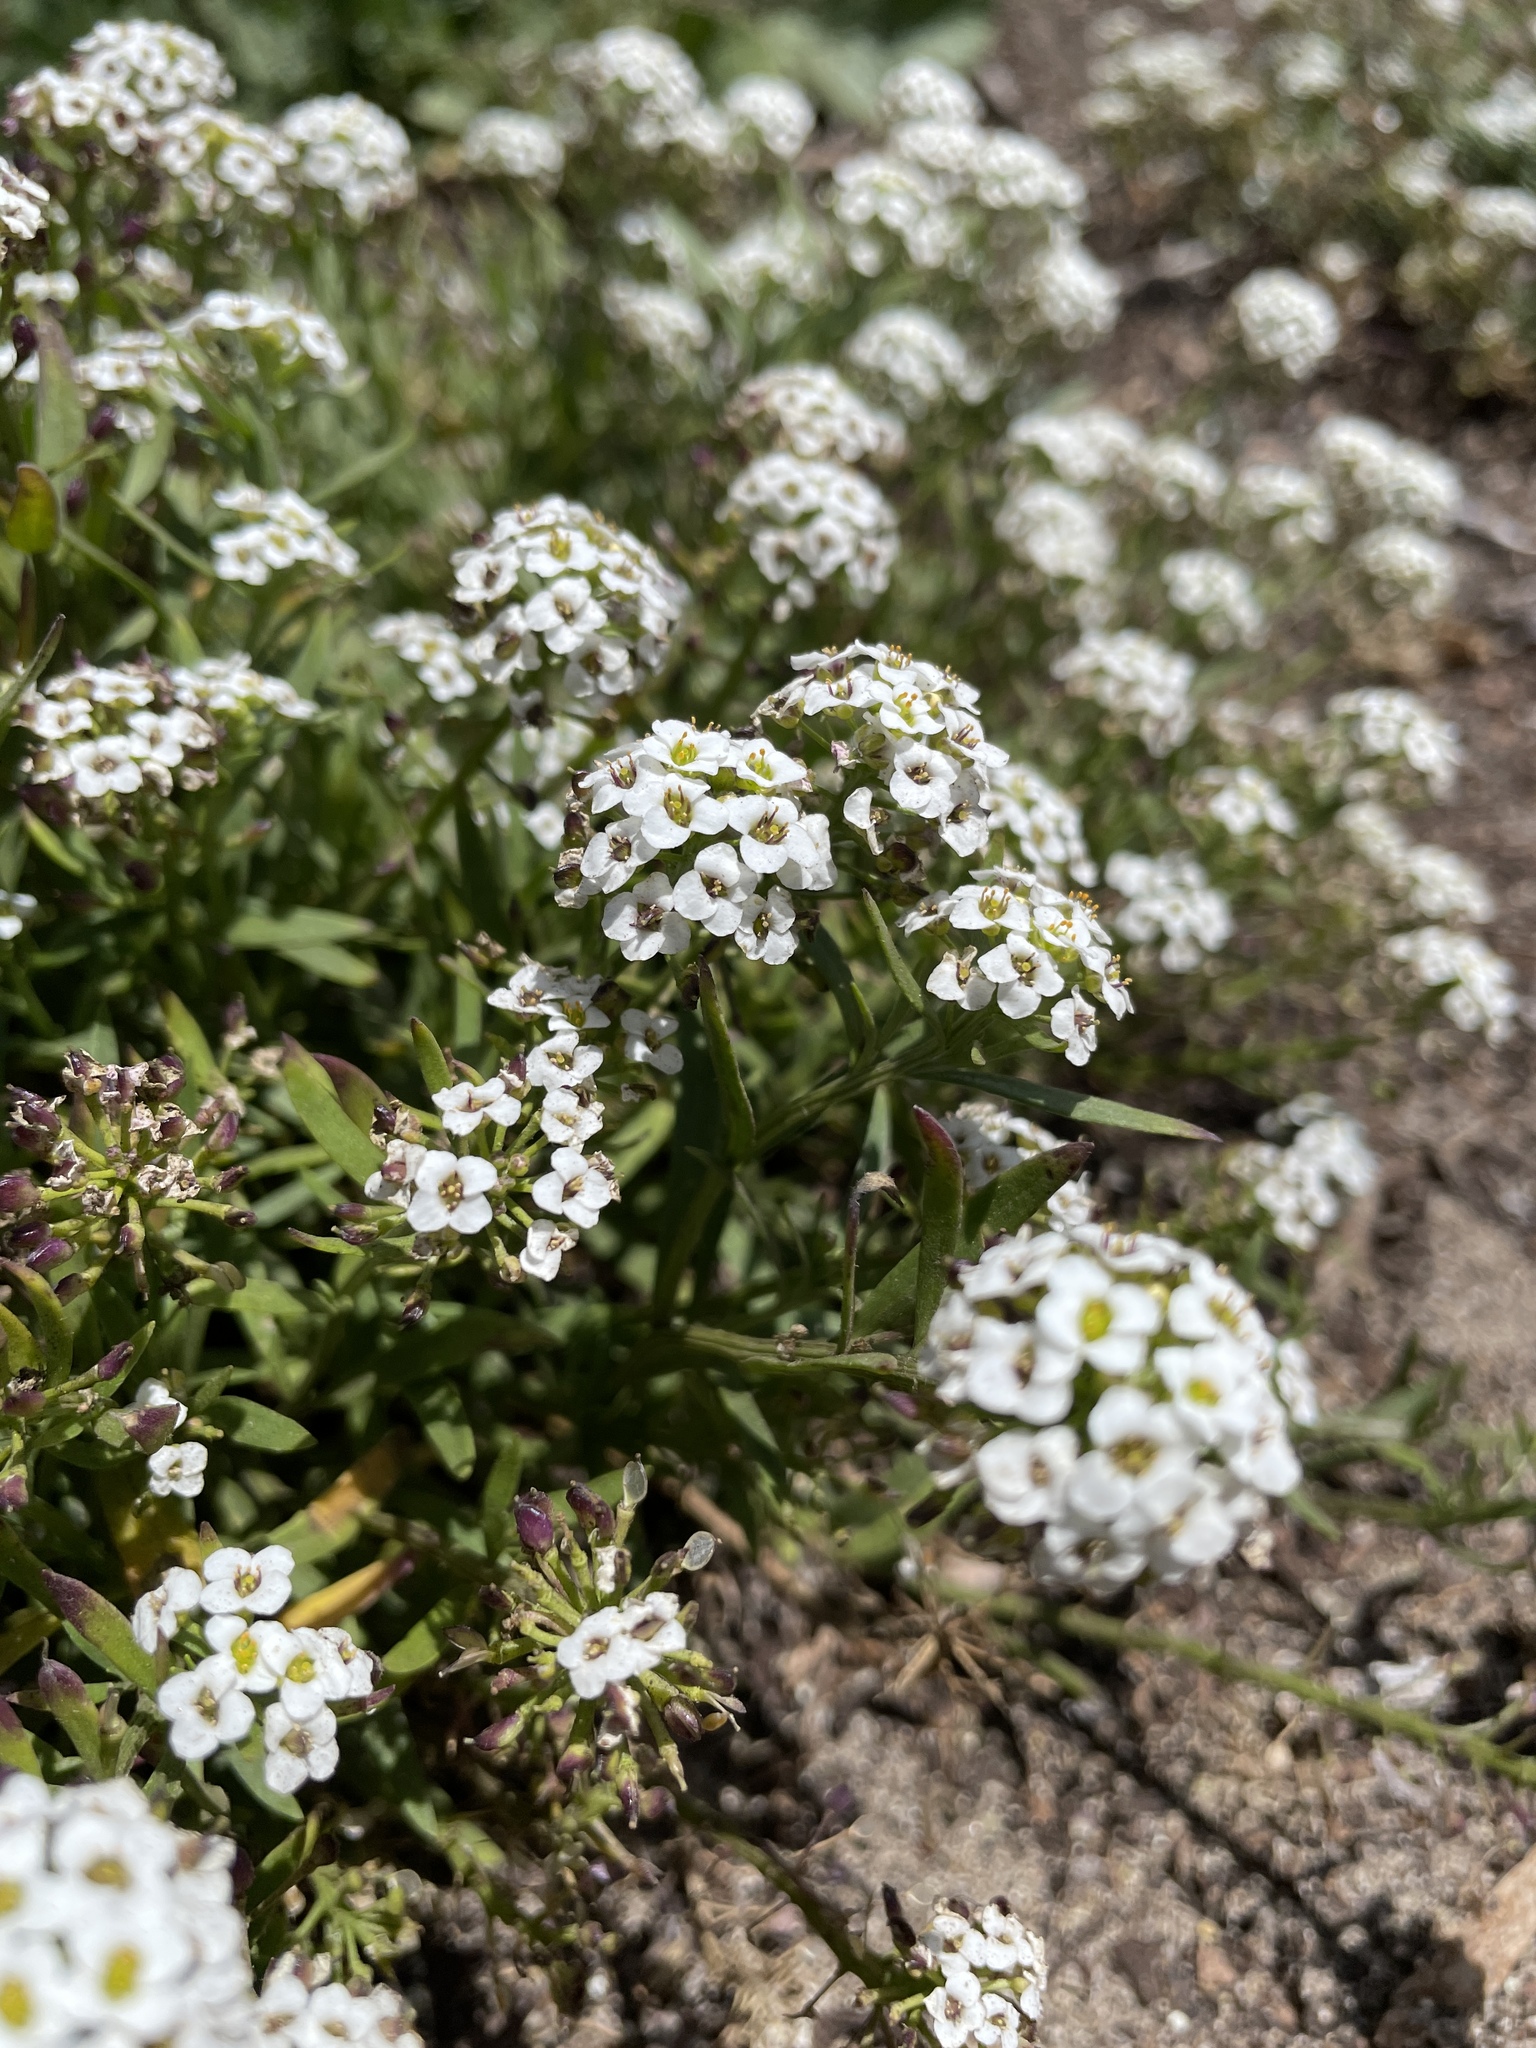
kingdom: Plantae
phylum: Tracheophyta
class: Magnoliopsida
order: Brassicales
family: Brassicaceae
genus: Lobularia
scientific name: Lobularia maritima
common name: Sweet alison
